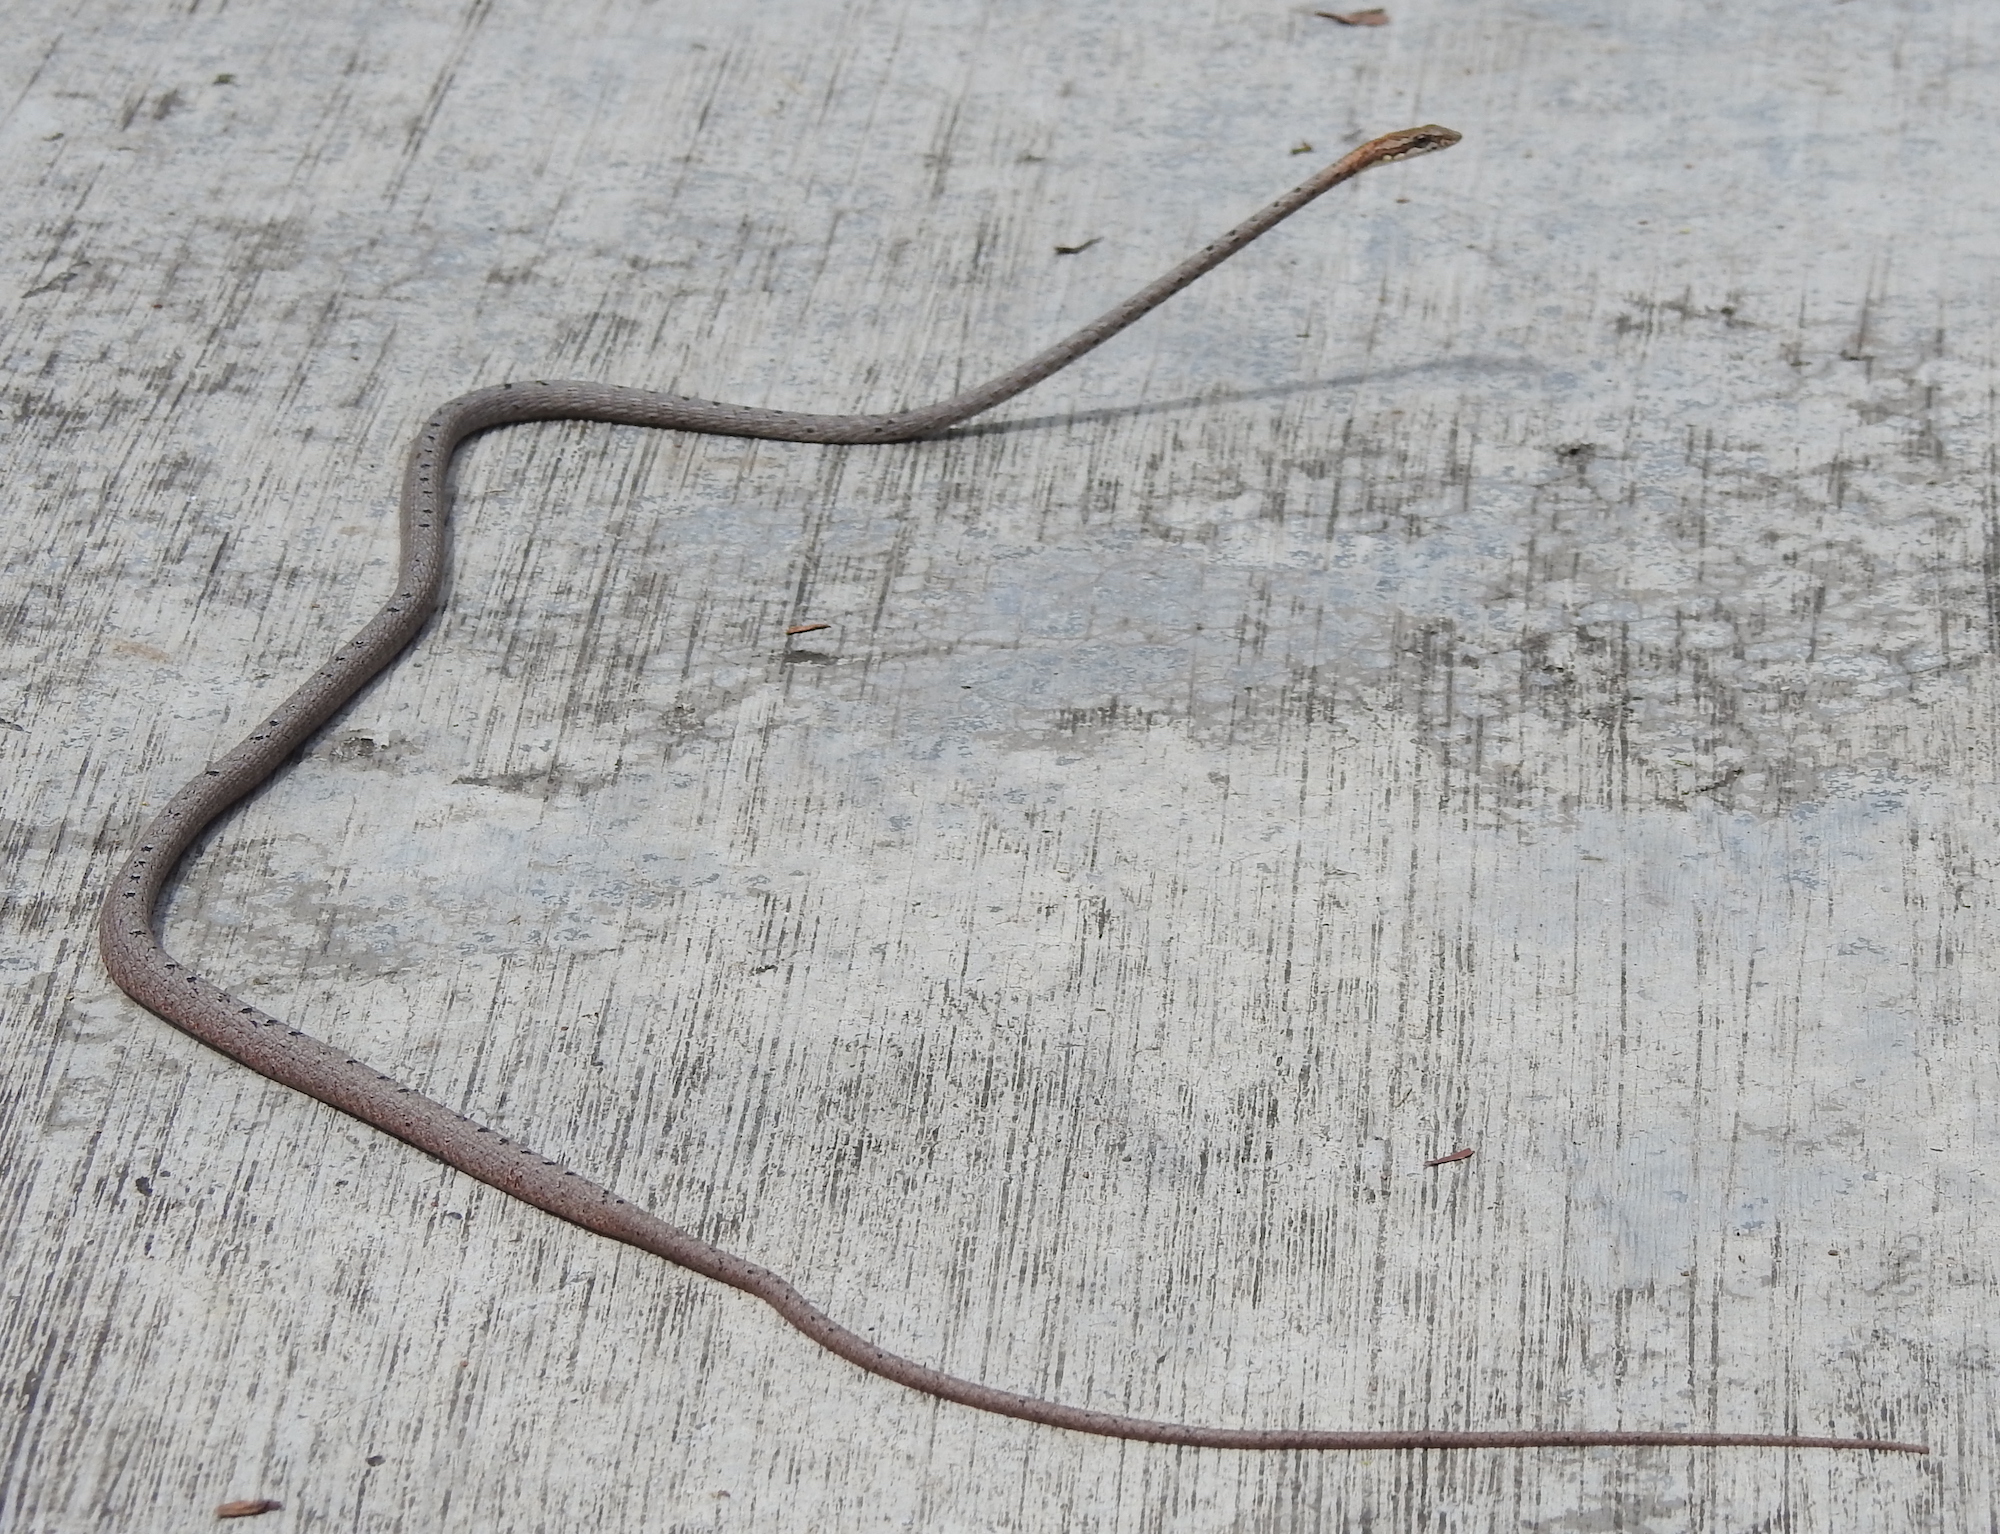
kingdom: Animalia
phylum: Chordata
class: Squamata
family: Colubridae
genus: Dryophiops
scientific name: Dryophiops rubescens
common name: Red whip snake
